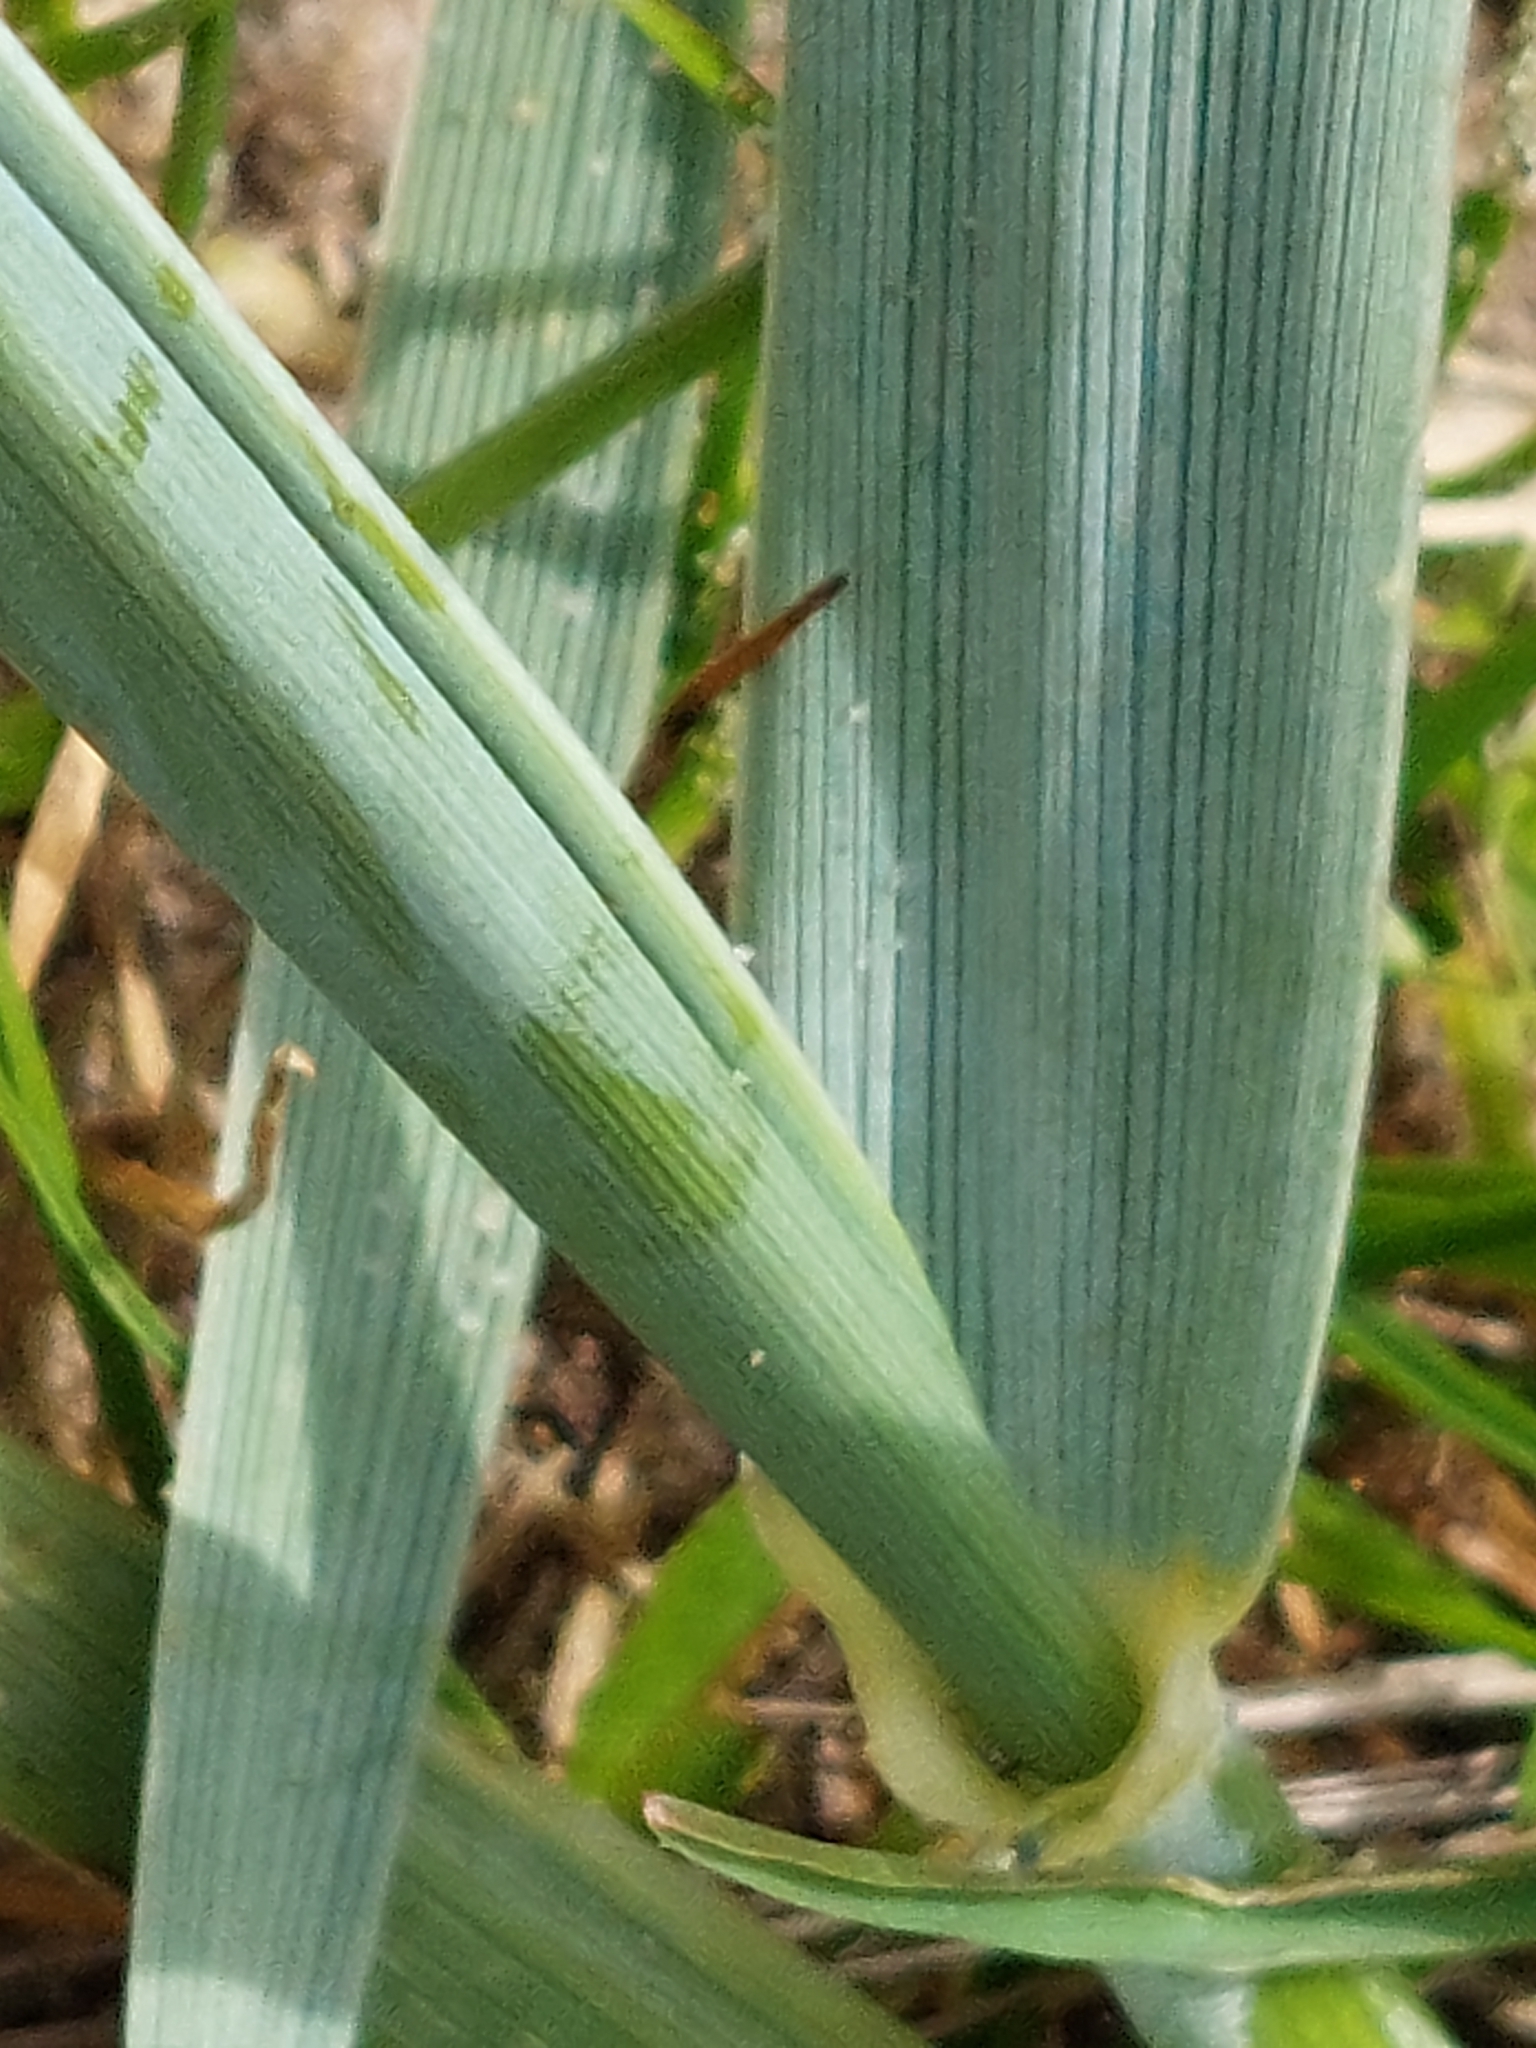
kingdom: Plantae
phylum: Tracheophyta
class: Liliopsida
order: Poales
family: Poaceae
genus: Leymus
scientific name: Leymus arenarius
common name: Lyme-grass
